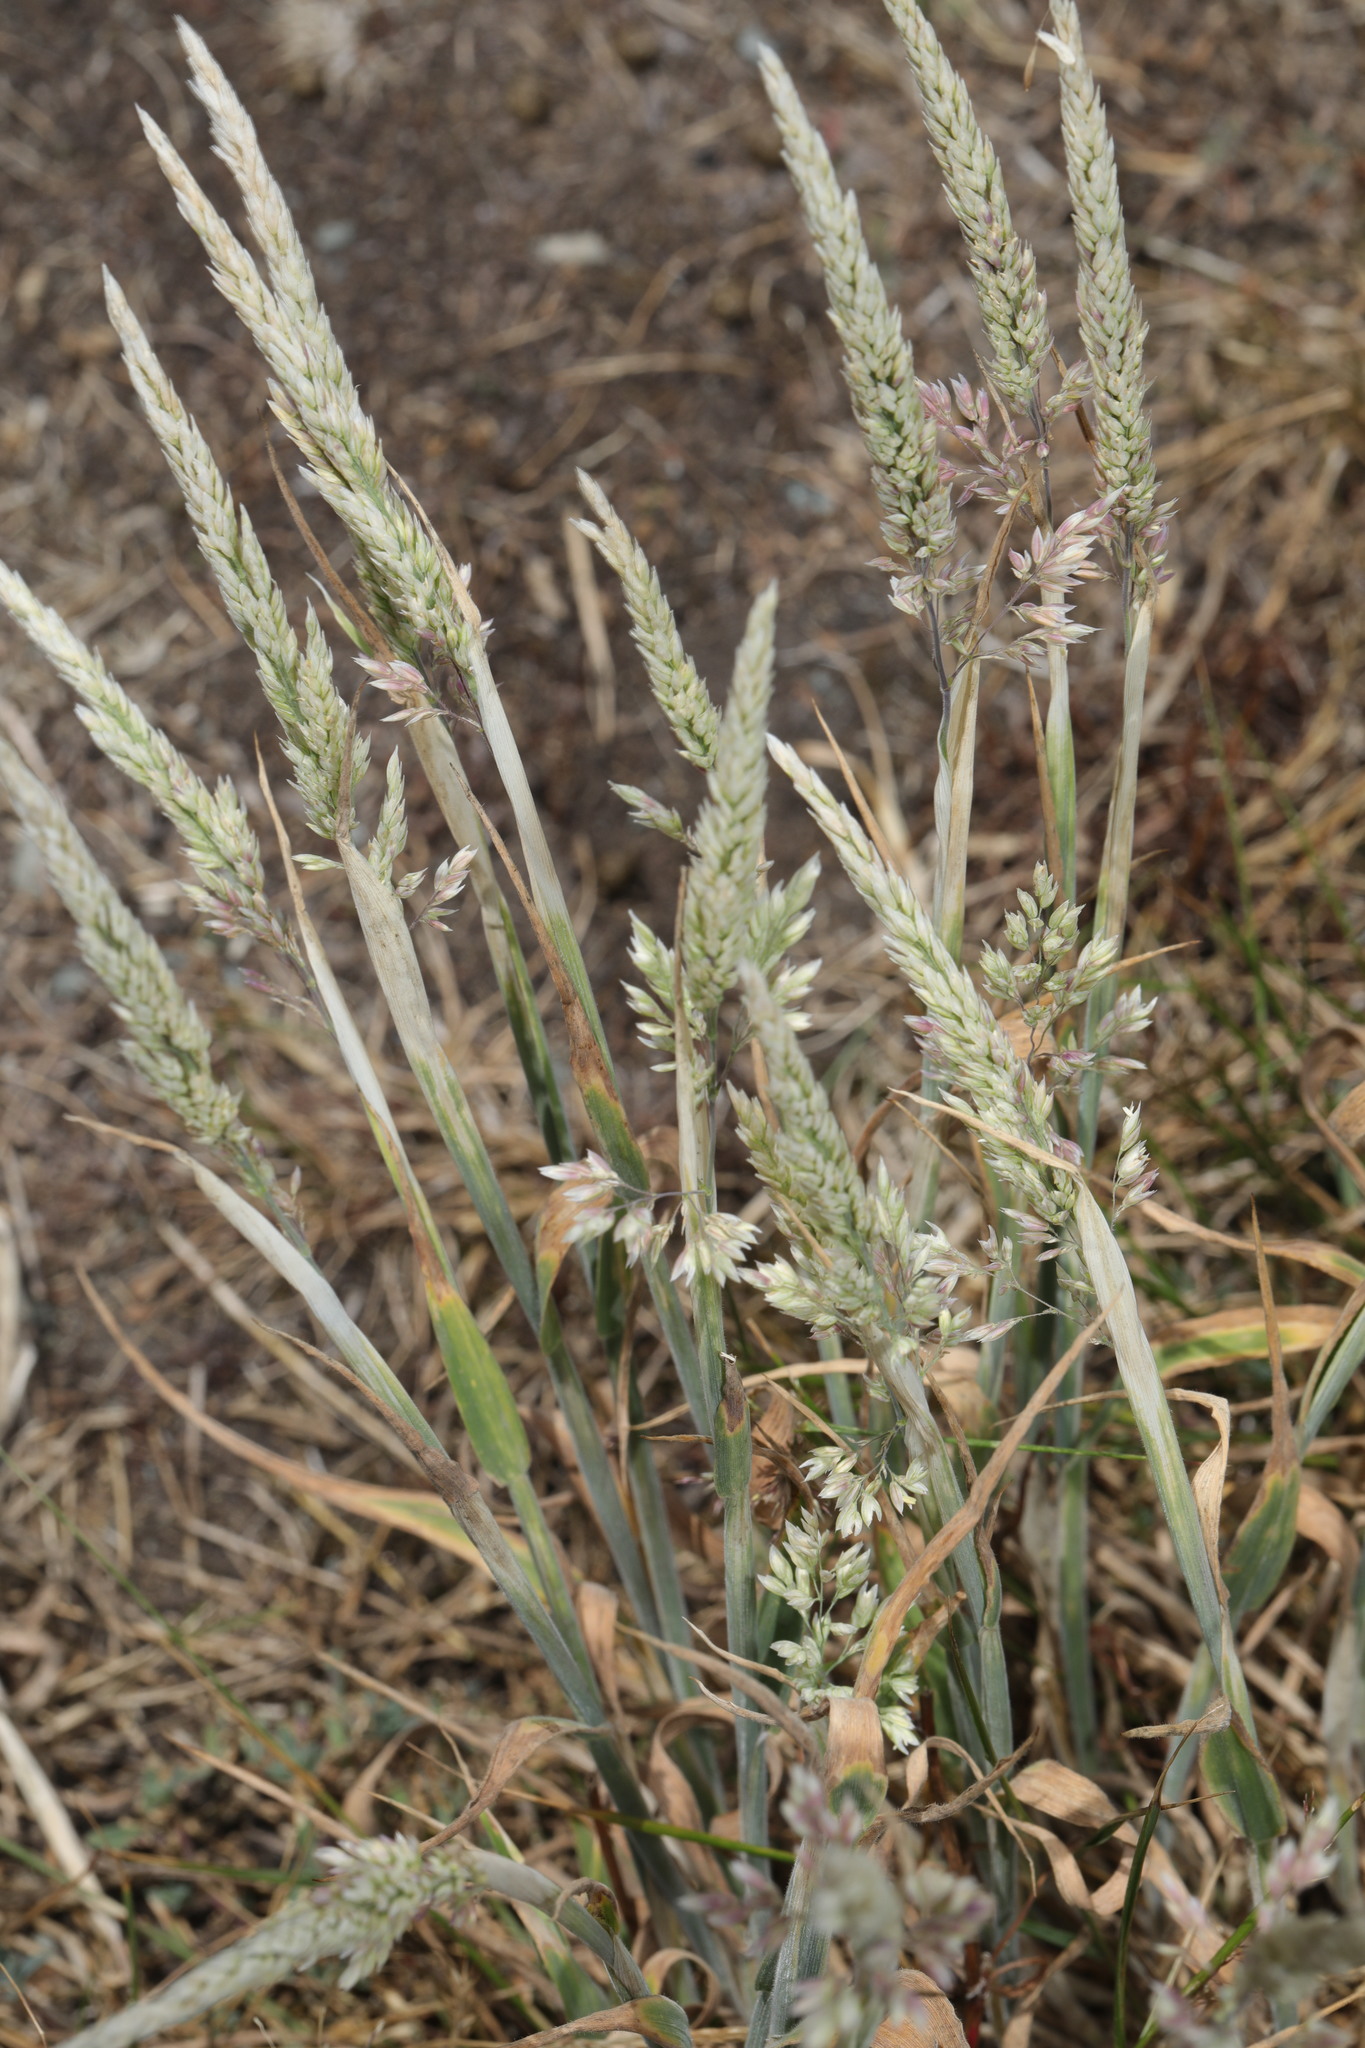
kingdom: Plantae
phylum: Tracheophyta
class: Liliopsida
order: Poales
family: Poaceae
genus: Holcus
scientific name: Holcus lanatus
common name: Yorkshire-fog
